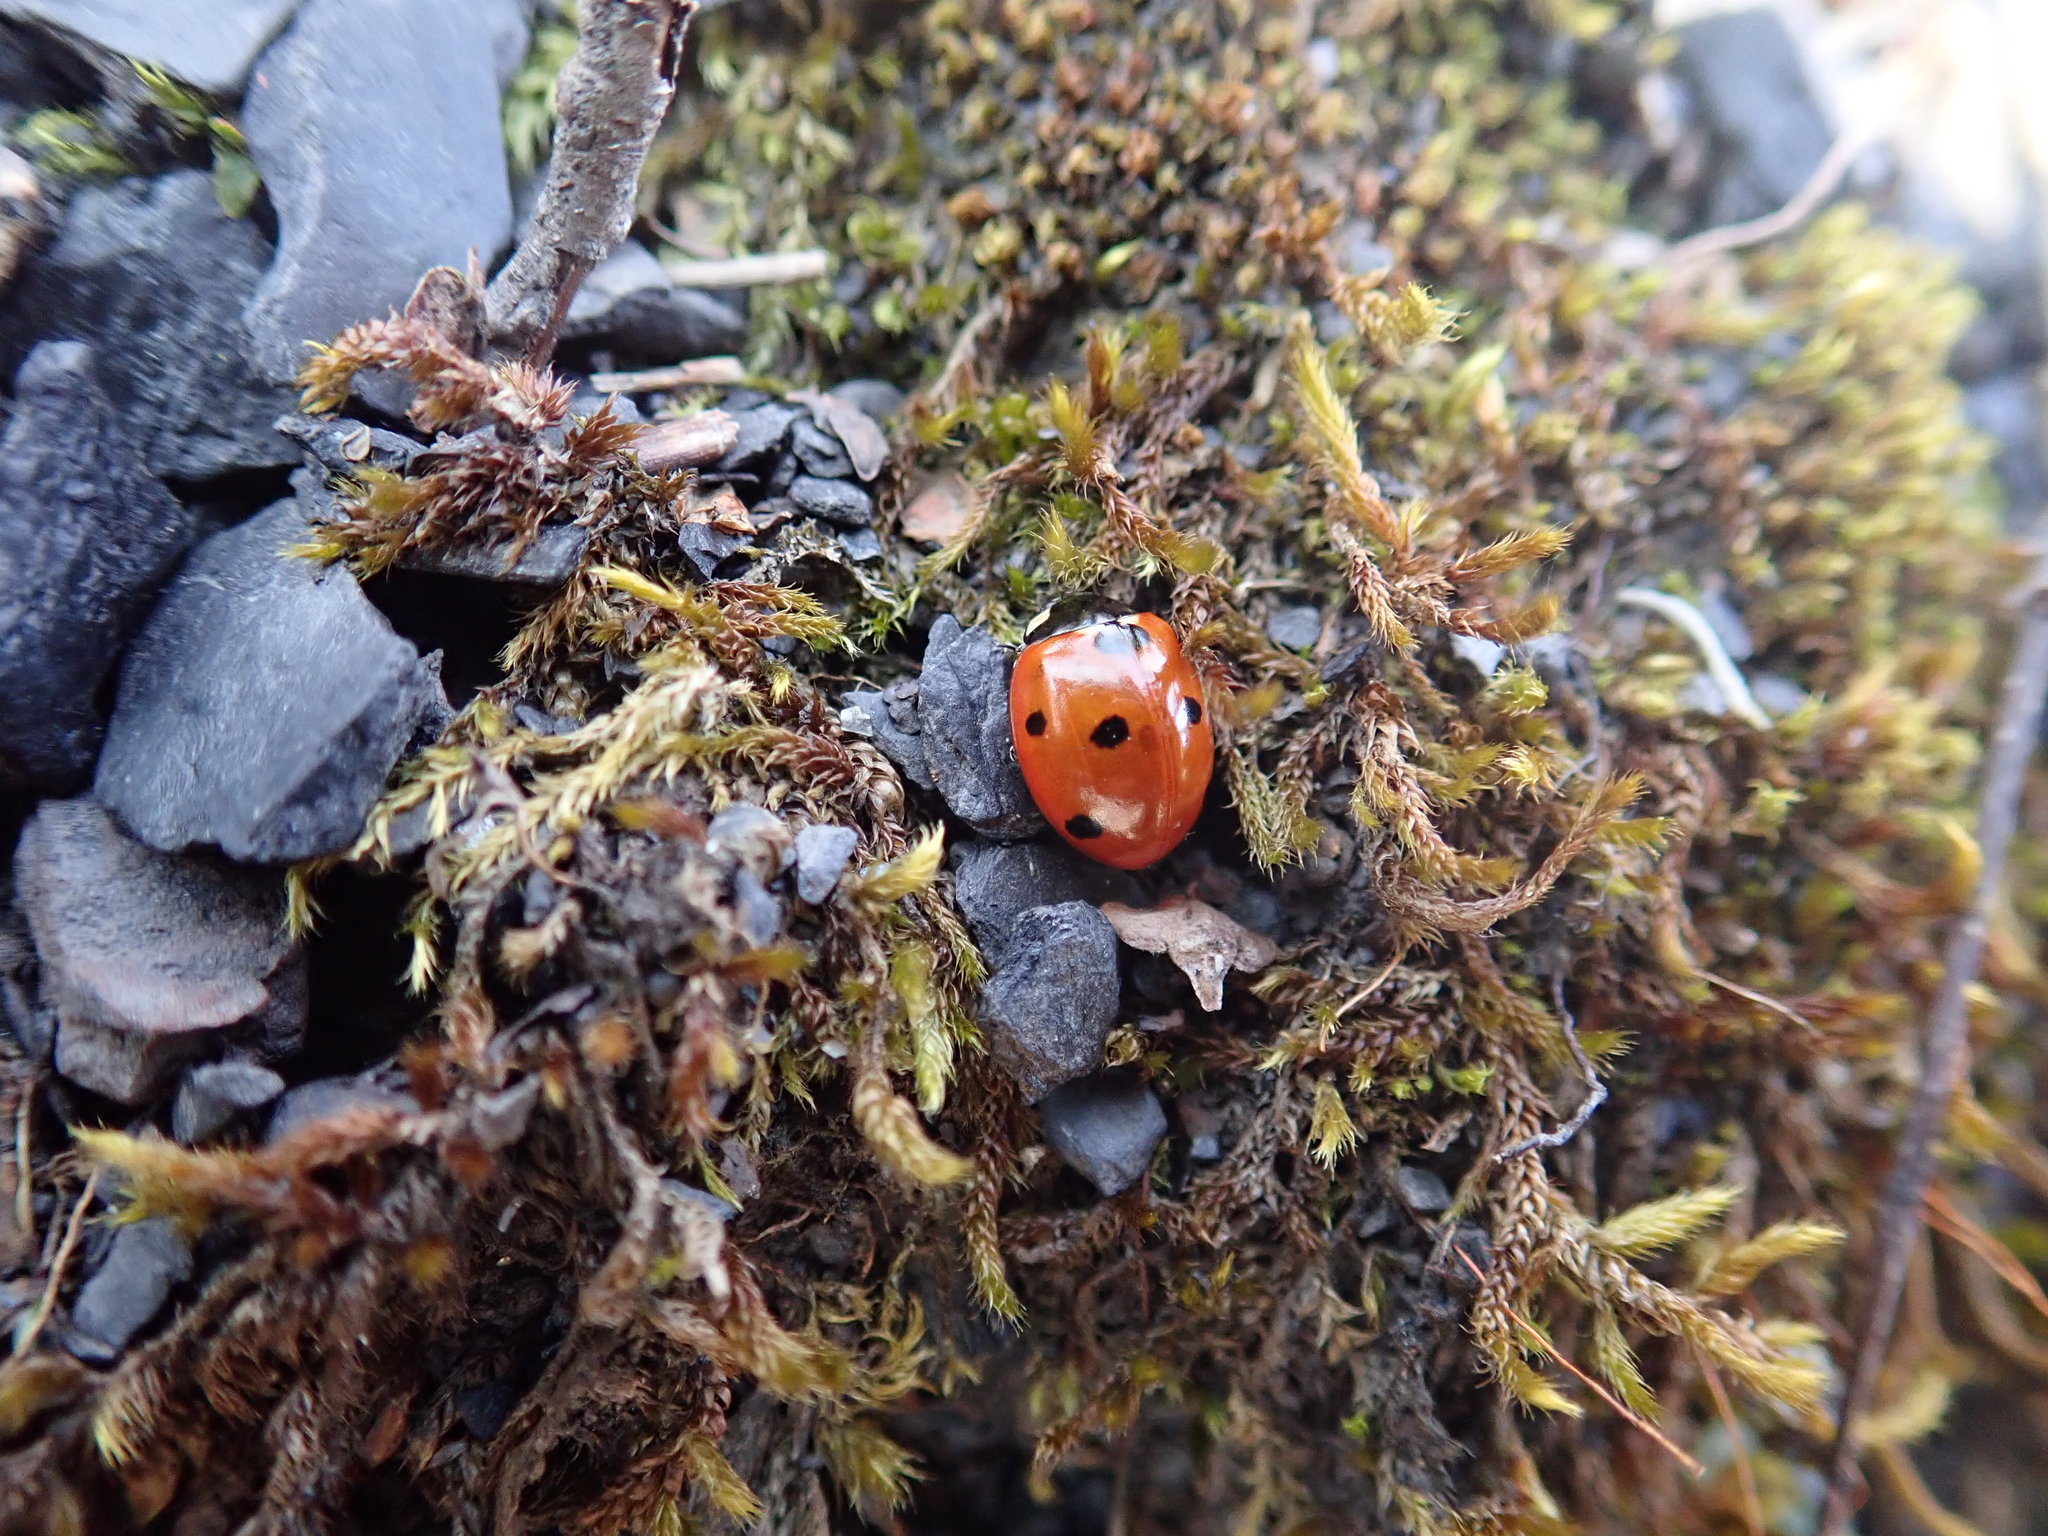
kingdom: Animalia
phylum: Arthropoda
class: Insecta
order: Coleoptera
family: Coccinellidae
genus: Coccinella
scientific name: Coccinella septempunctata
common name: Sevenspotted lady beetle
